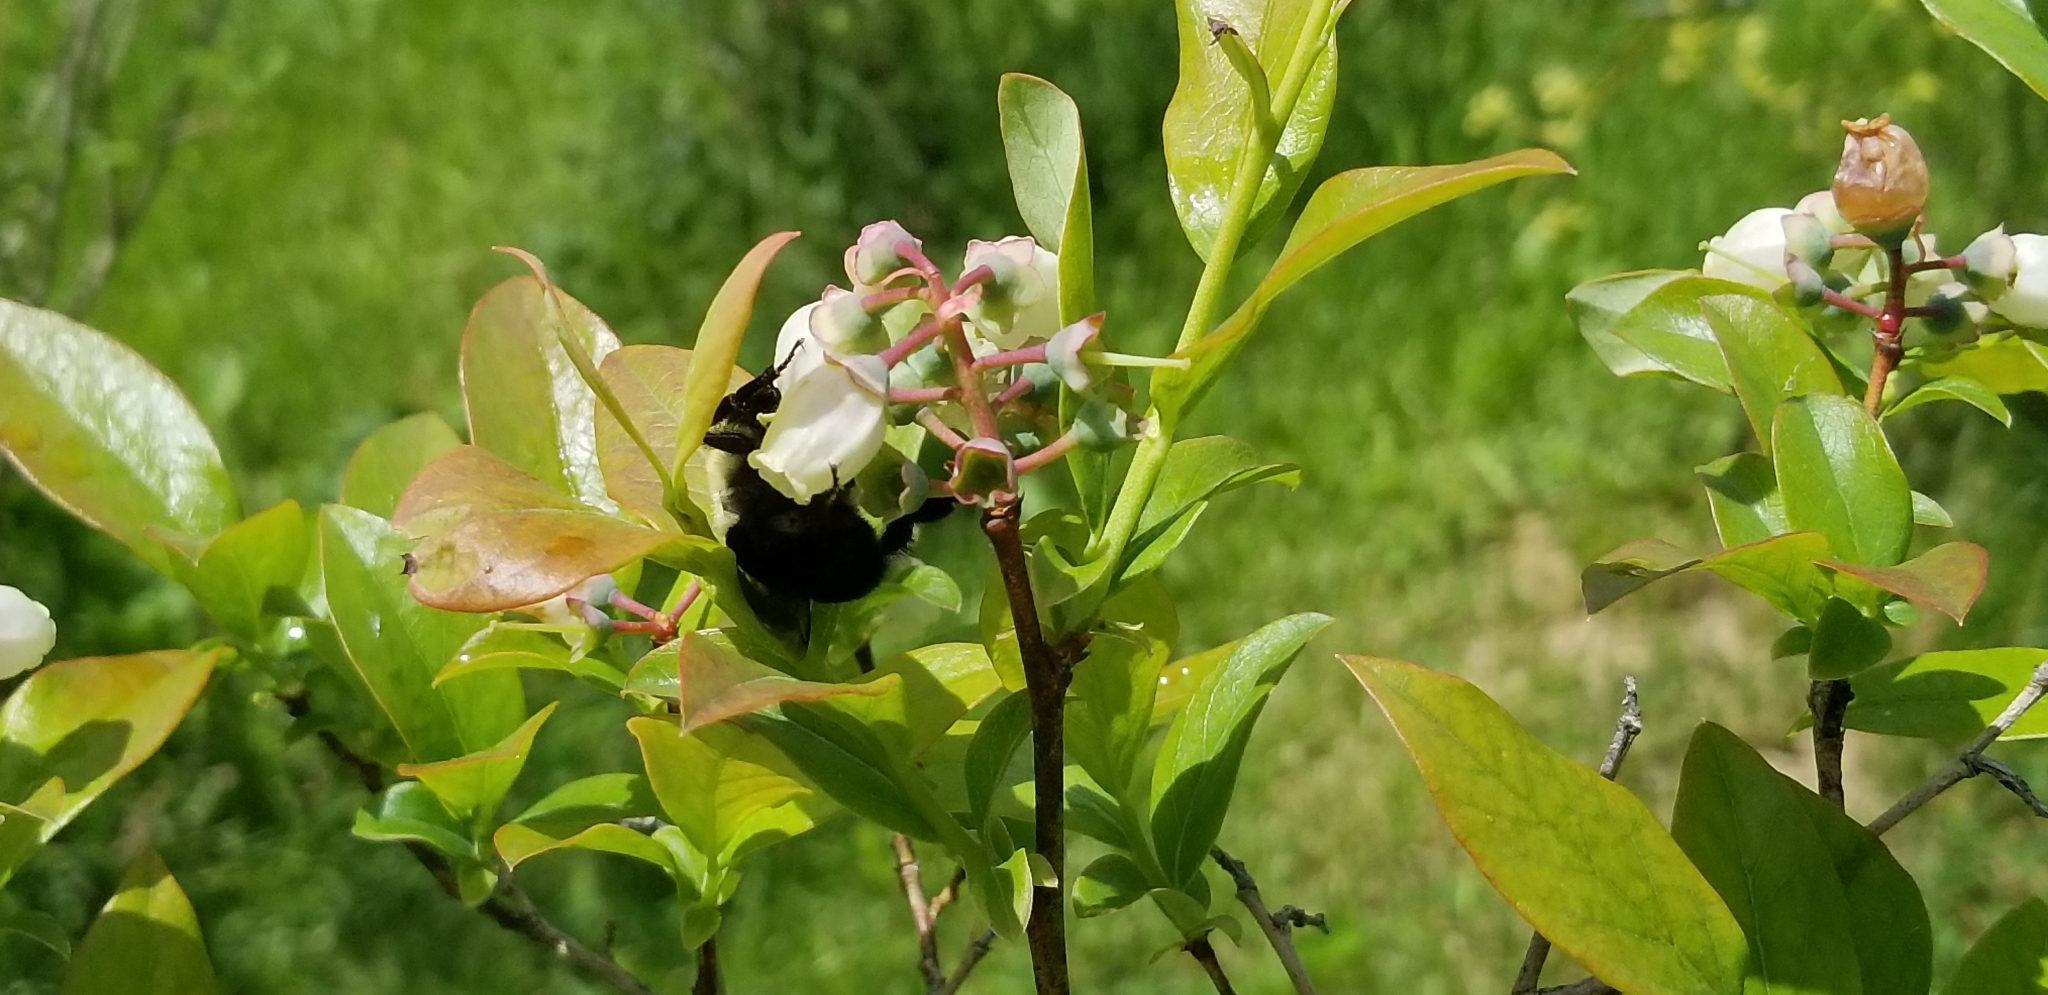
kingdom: Animalia
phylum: Arthropoda
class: Insecta
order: Hymenoptera
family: Apidae
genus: Bombus
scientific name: Bombus impatiens
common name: Common eastern bumble bee
